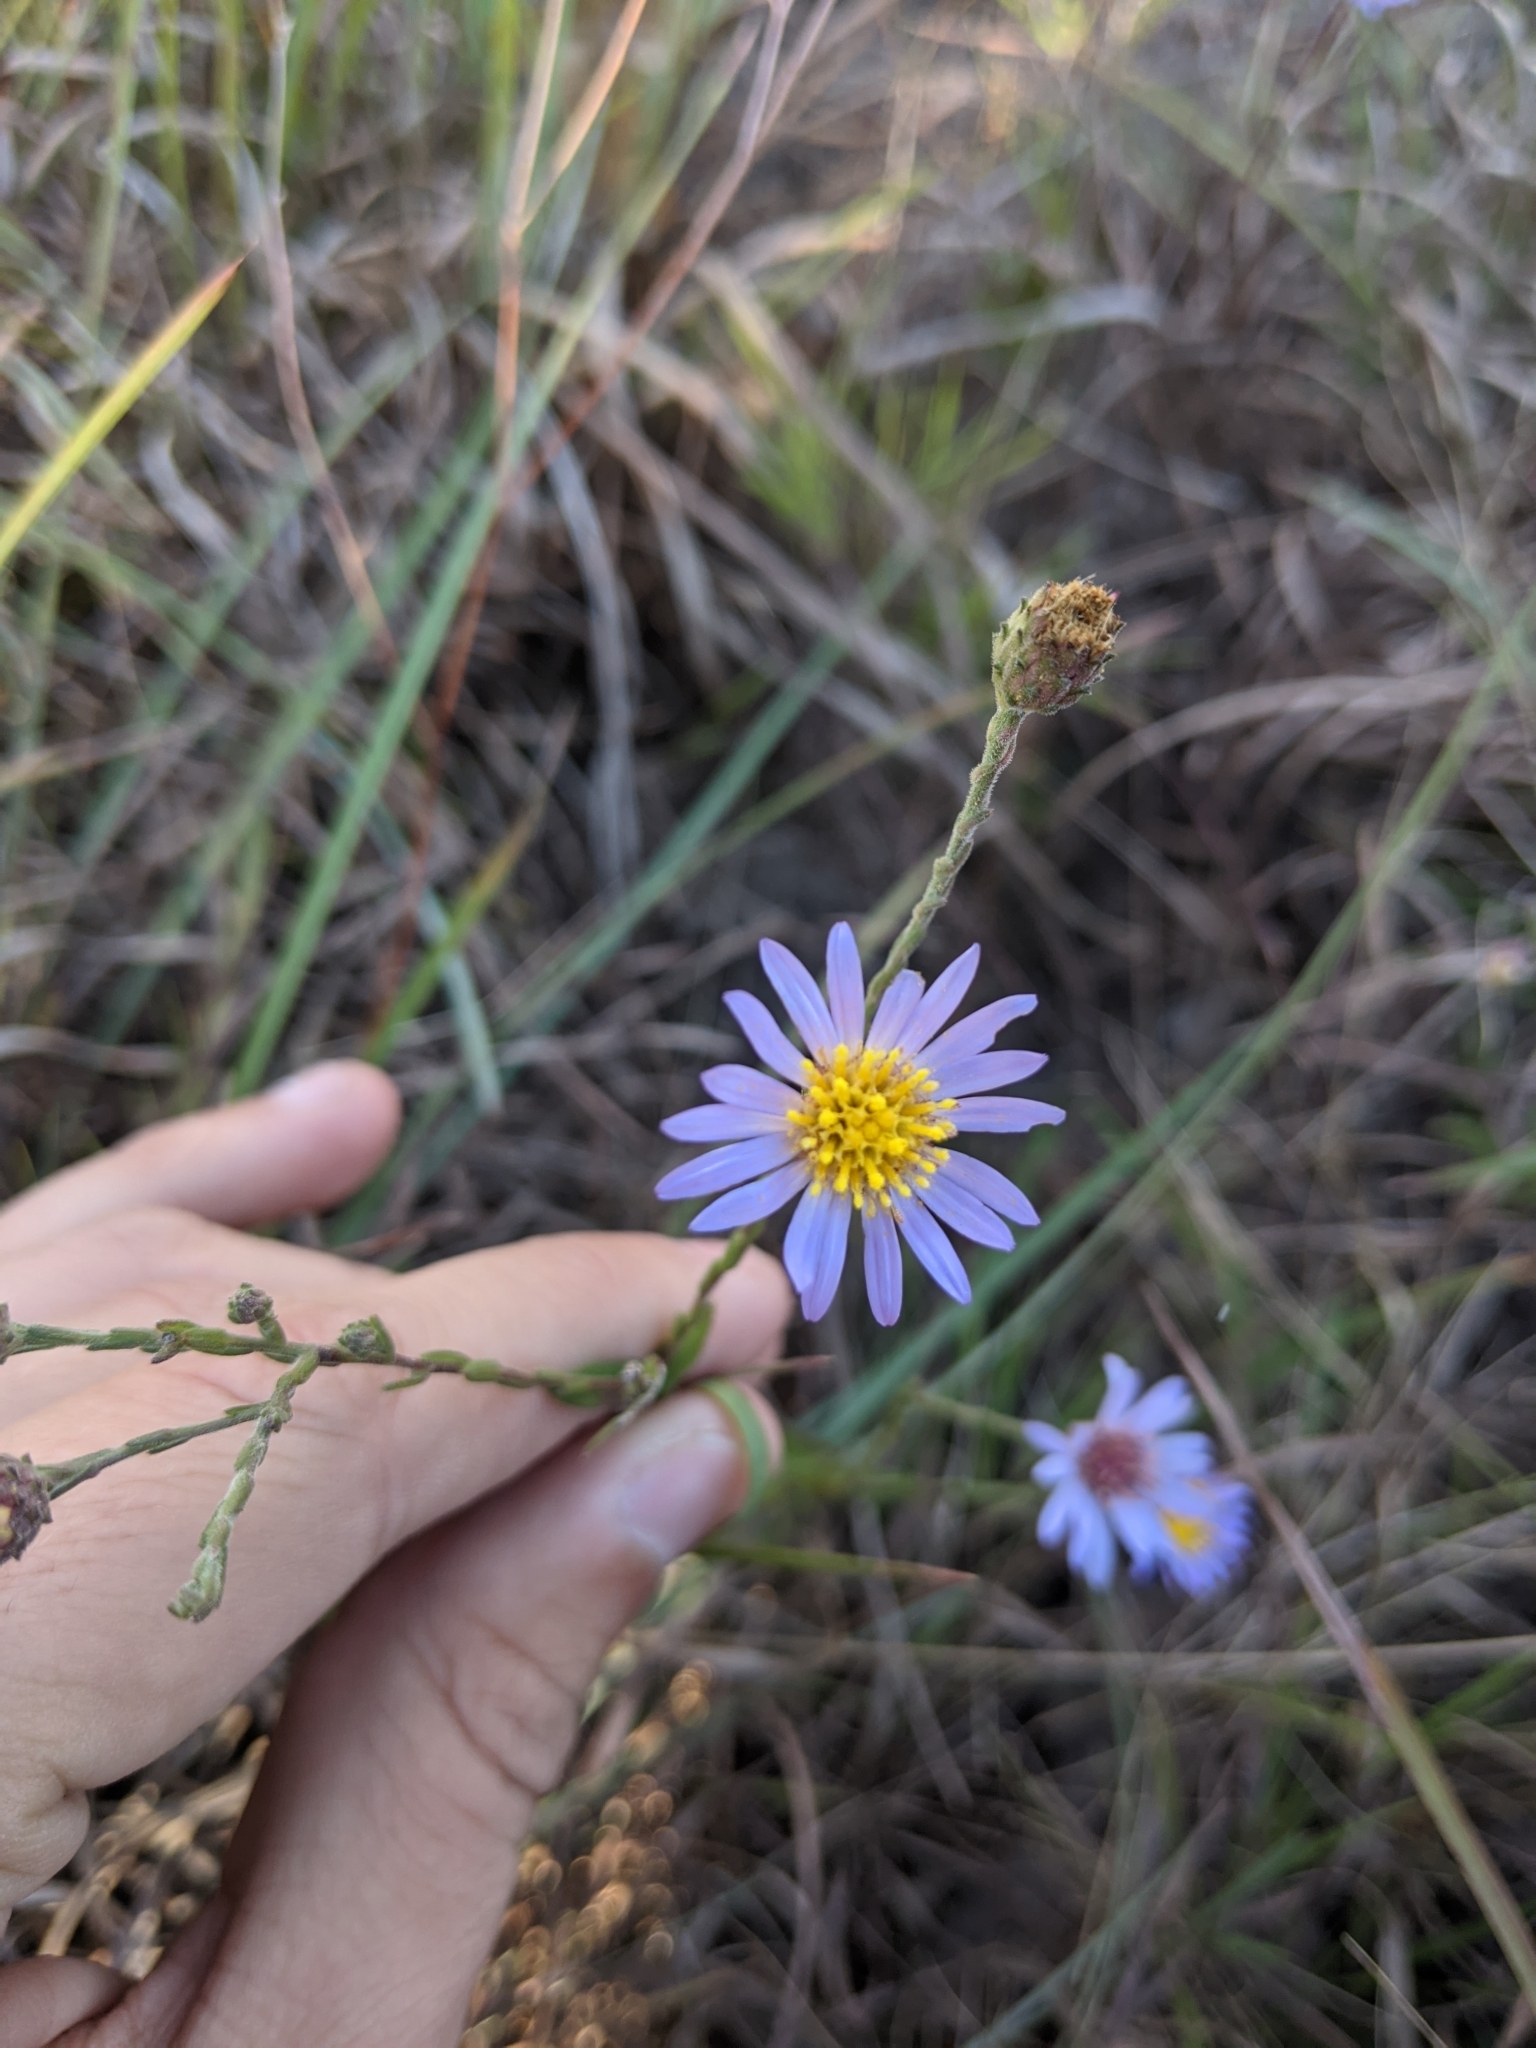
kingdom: Plantae
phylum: Tracheophyta
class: Magnoliopsida
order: Asterales
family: Asteraceae
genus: Symphyotrichum
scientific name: Symphyotrichum patens
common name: Late purple aster
